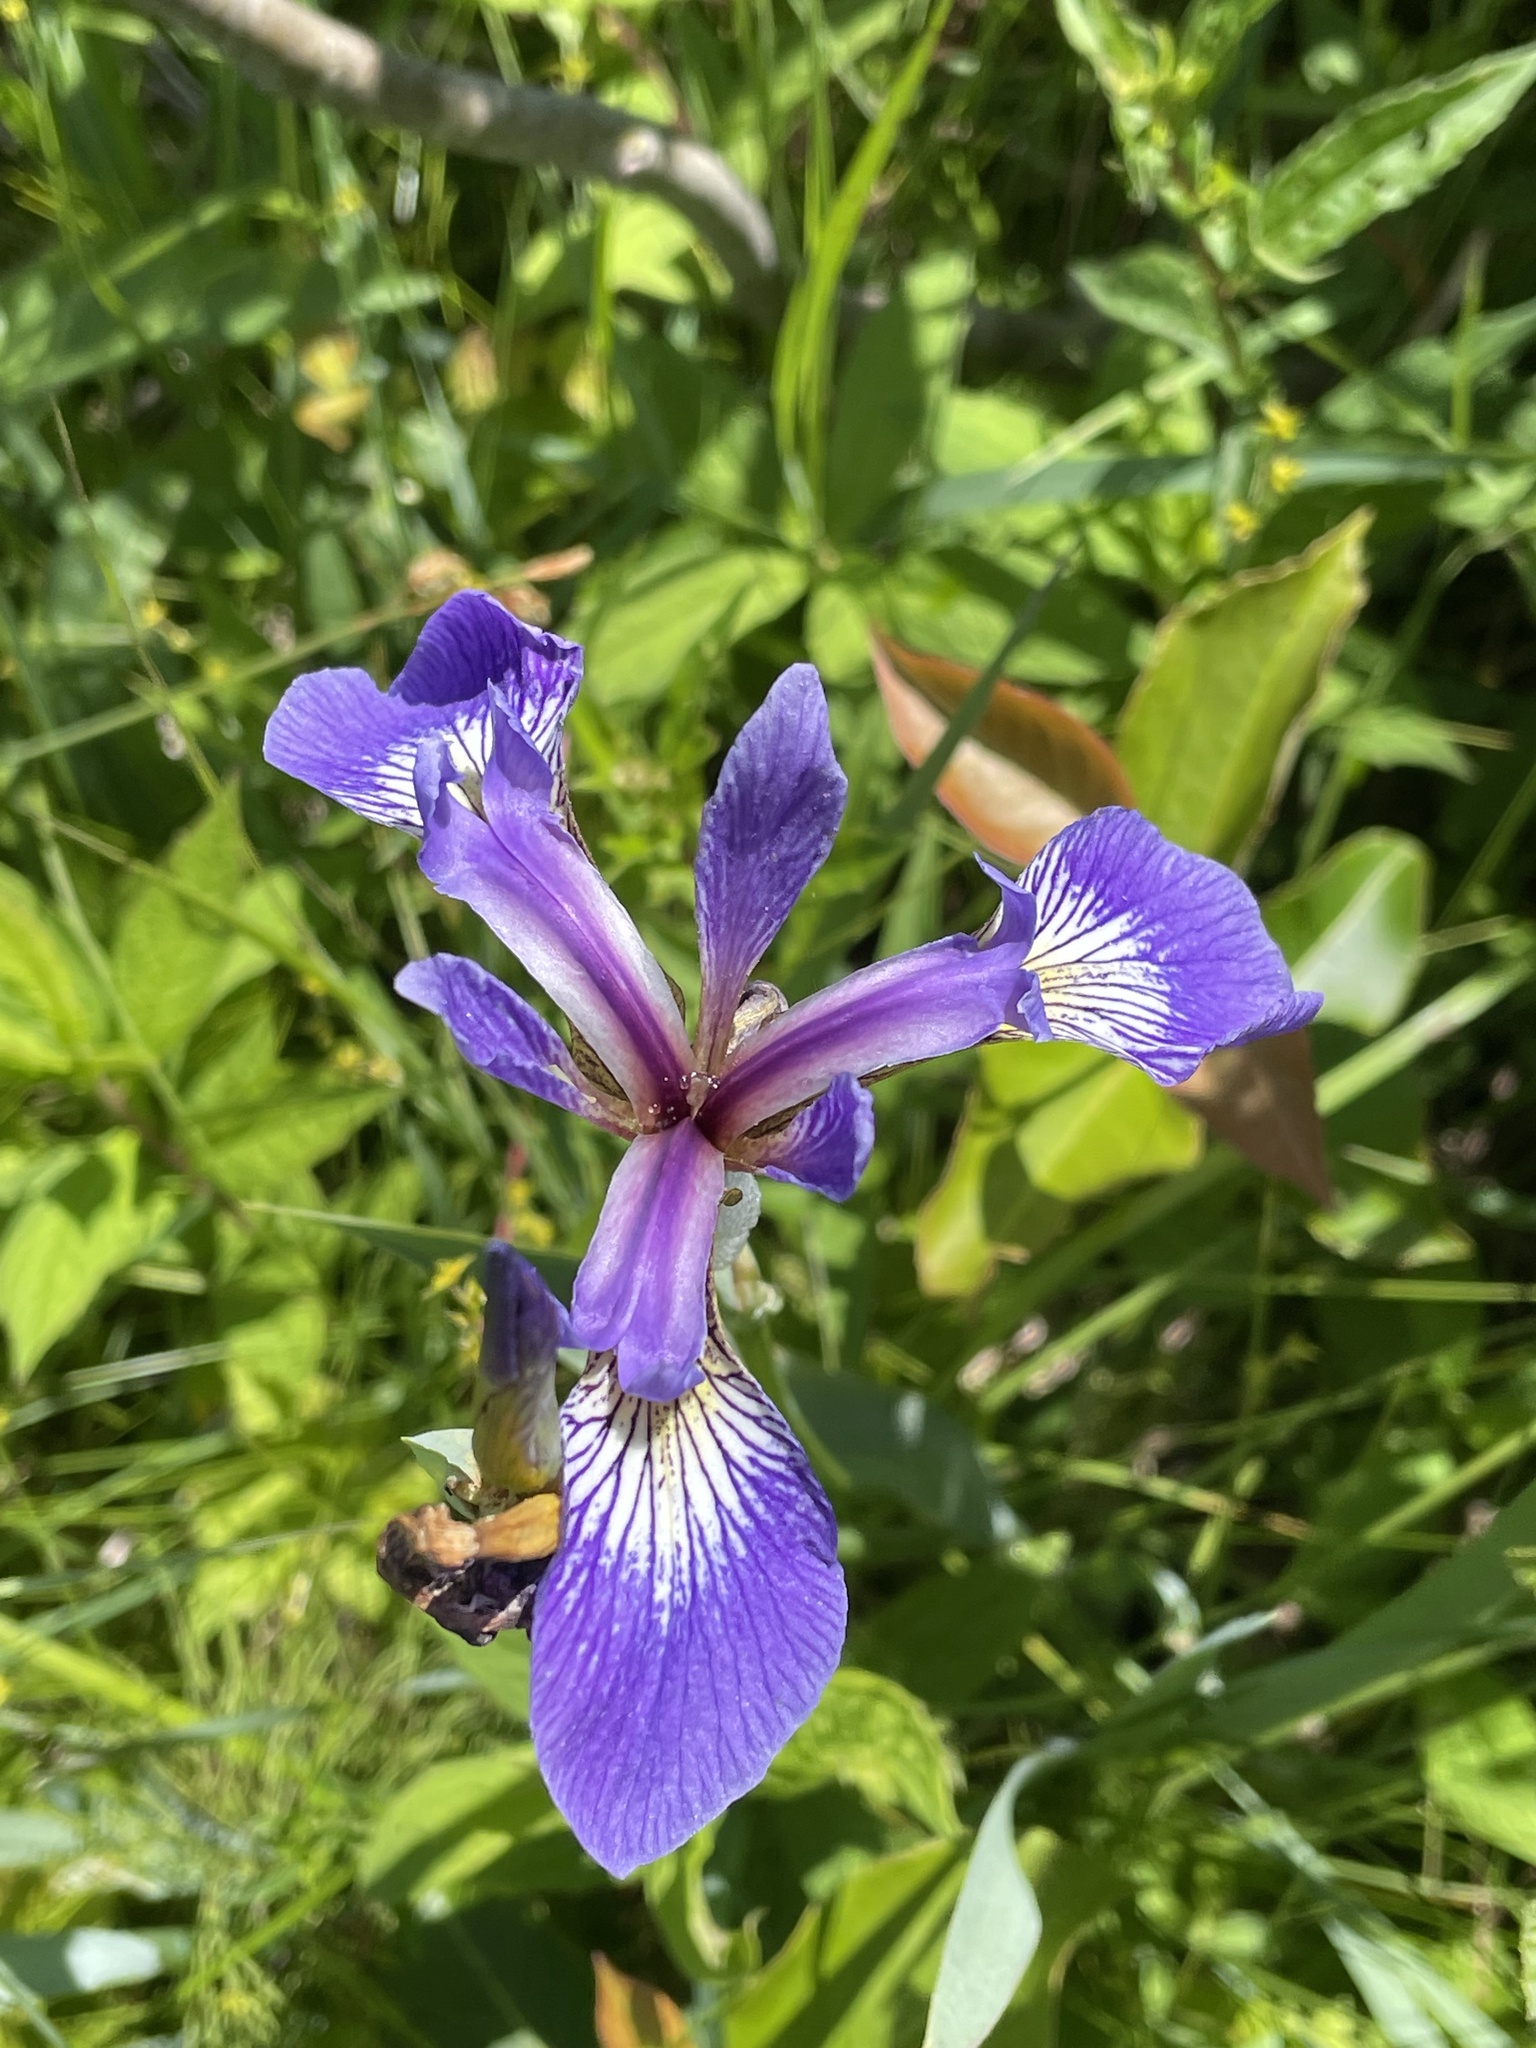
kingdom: Plantae
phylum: Tracheophyta
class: Liliopsida
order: Asparagales
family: Iridaceae
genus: Iris
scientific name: Iris versicolor
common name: Purple iris
